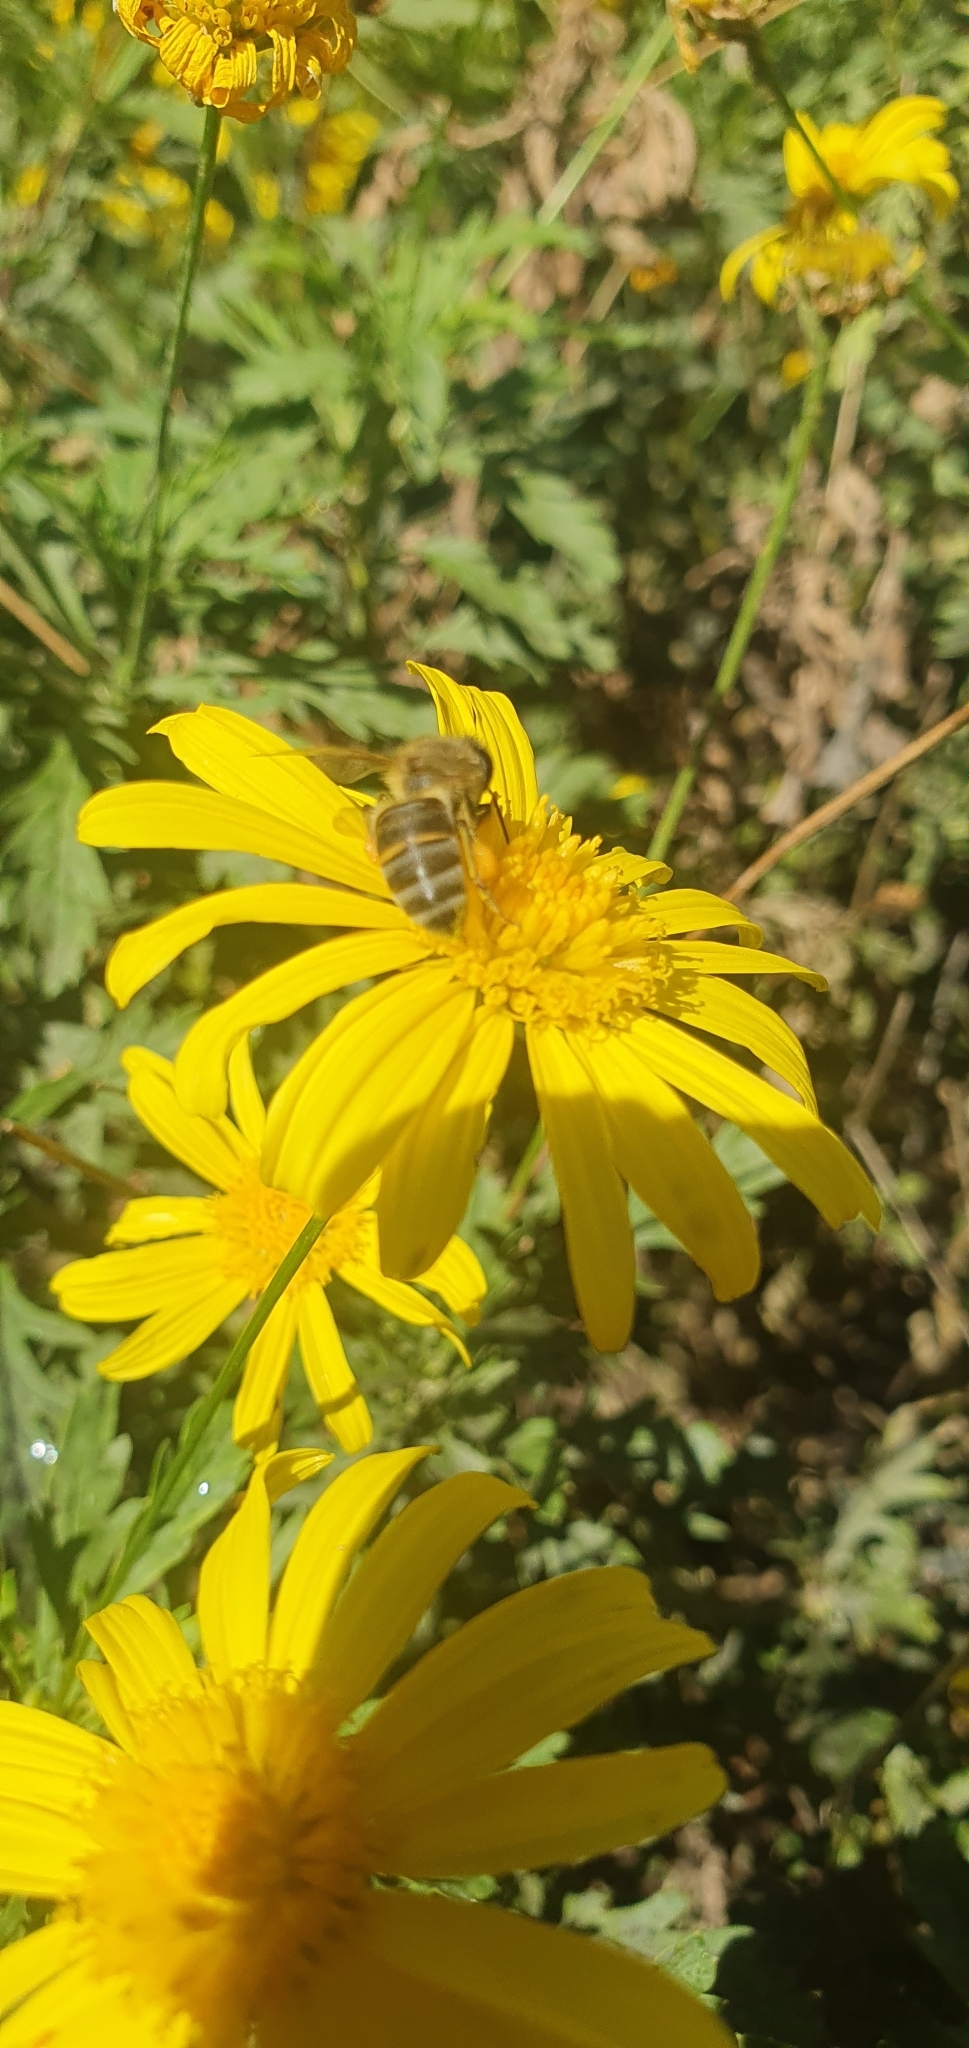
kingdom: Animalia
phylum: Arthropoda
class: Insecta
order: Hymenoptera
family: Apidae
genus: Apis
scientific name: Apis mellifera
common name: Honey bee
